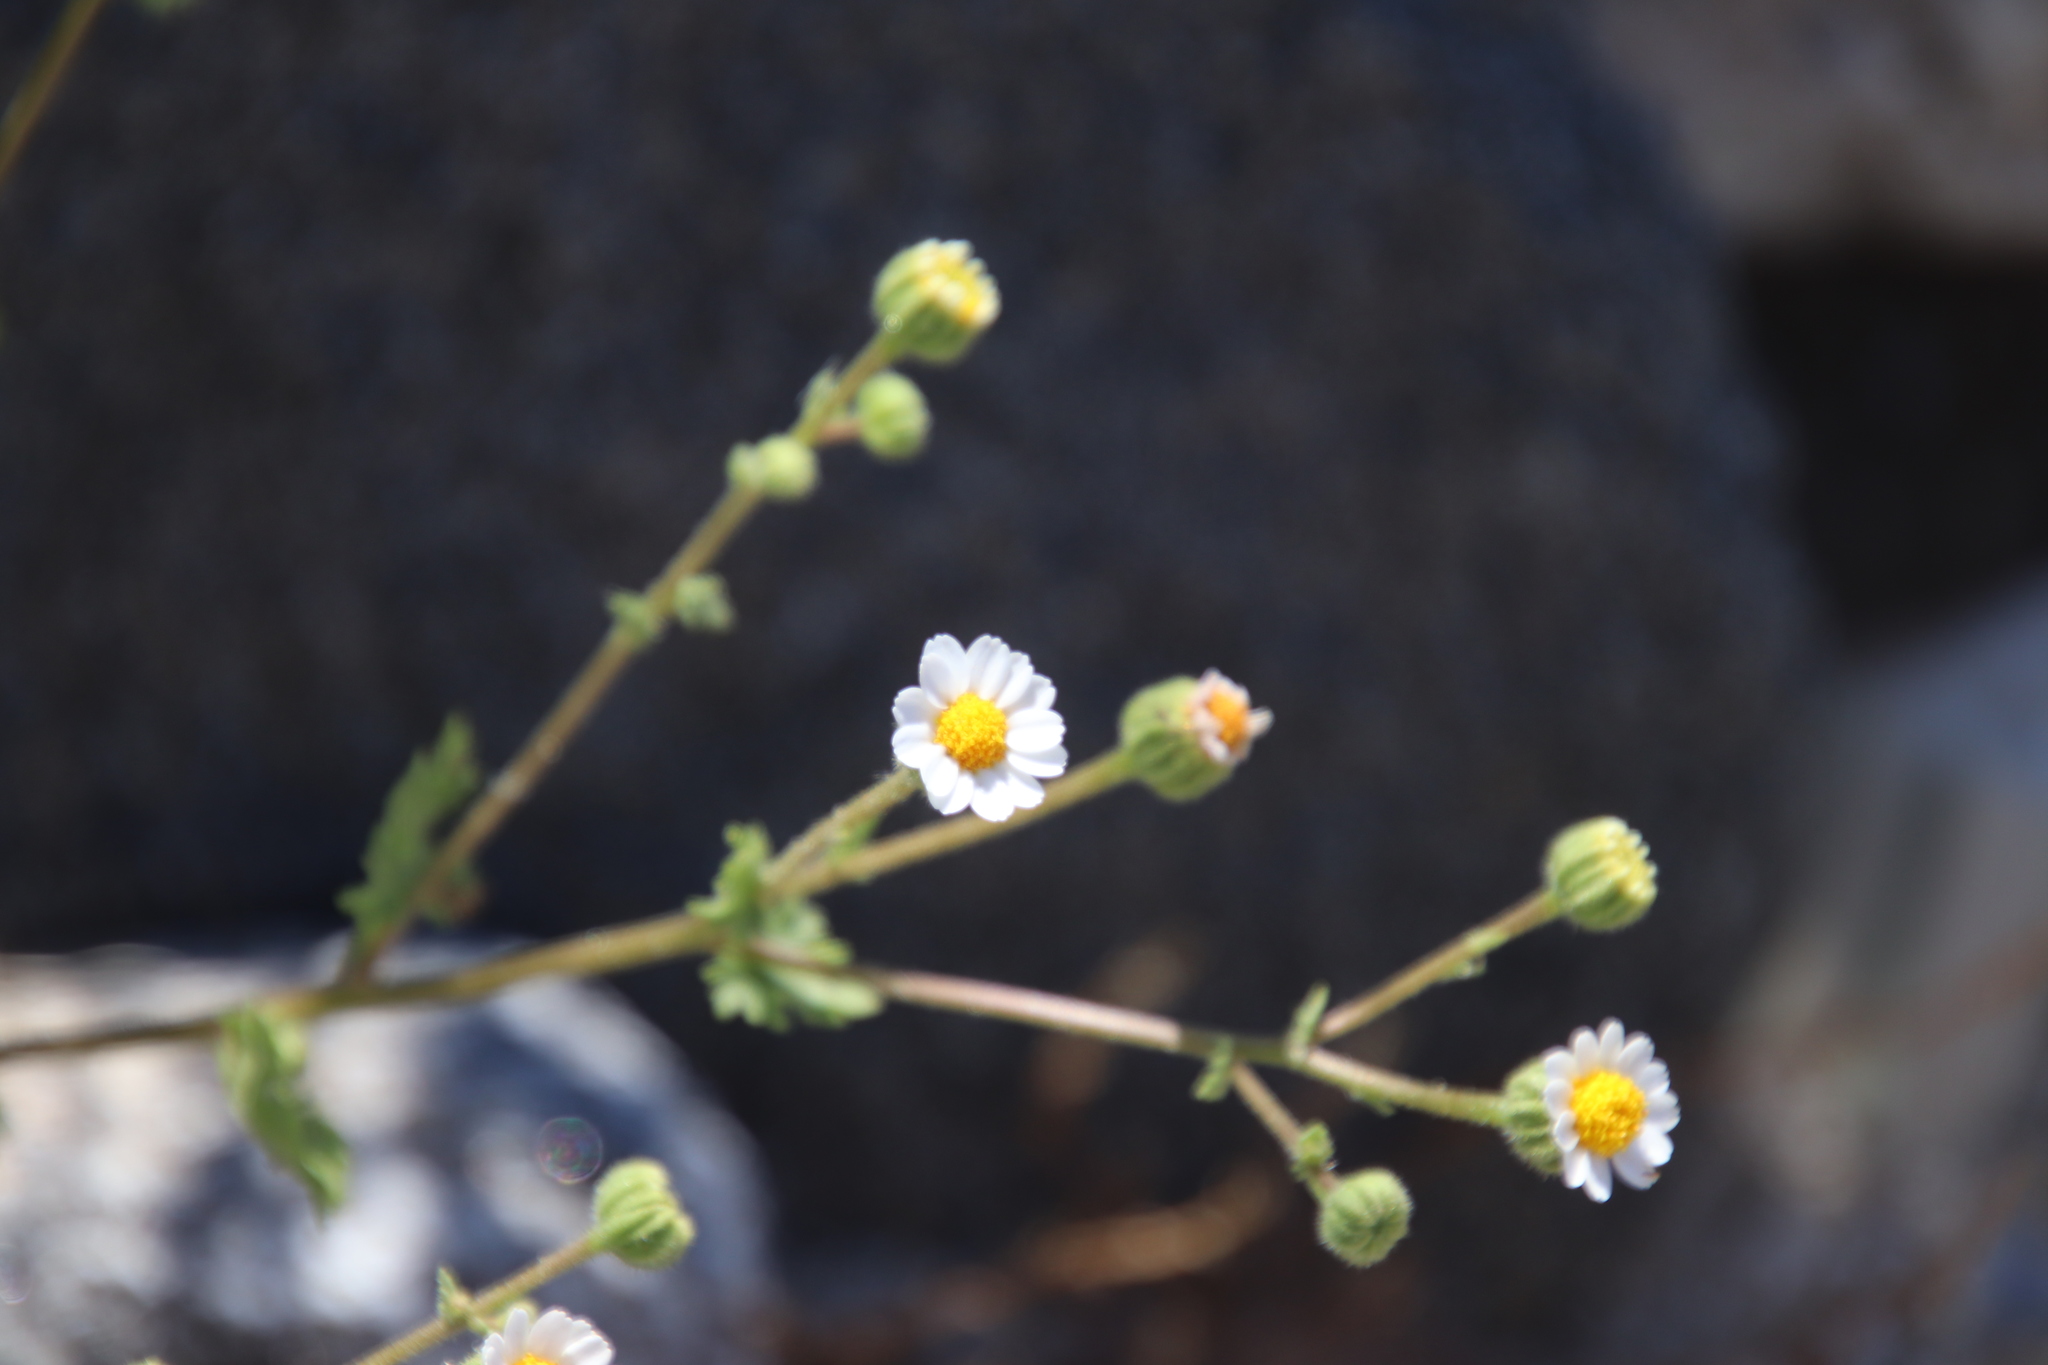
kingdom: Plantae
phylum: Tracheophyta
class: Magnoliopsida
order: Asterales
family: Asteraceae
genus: Laphamia
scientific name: Laphamia emoryi
